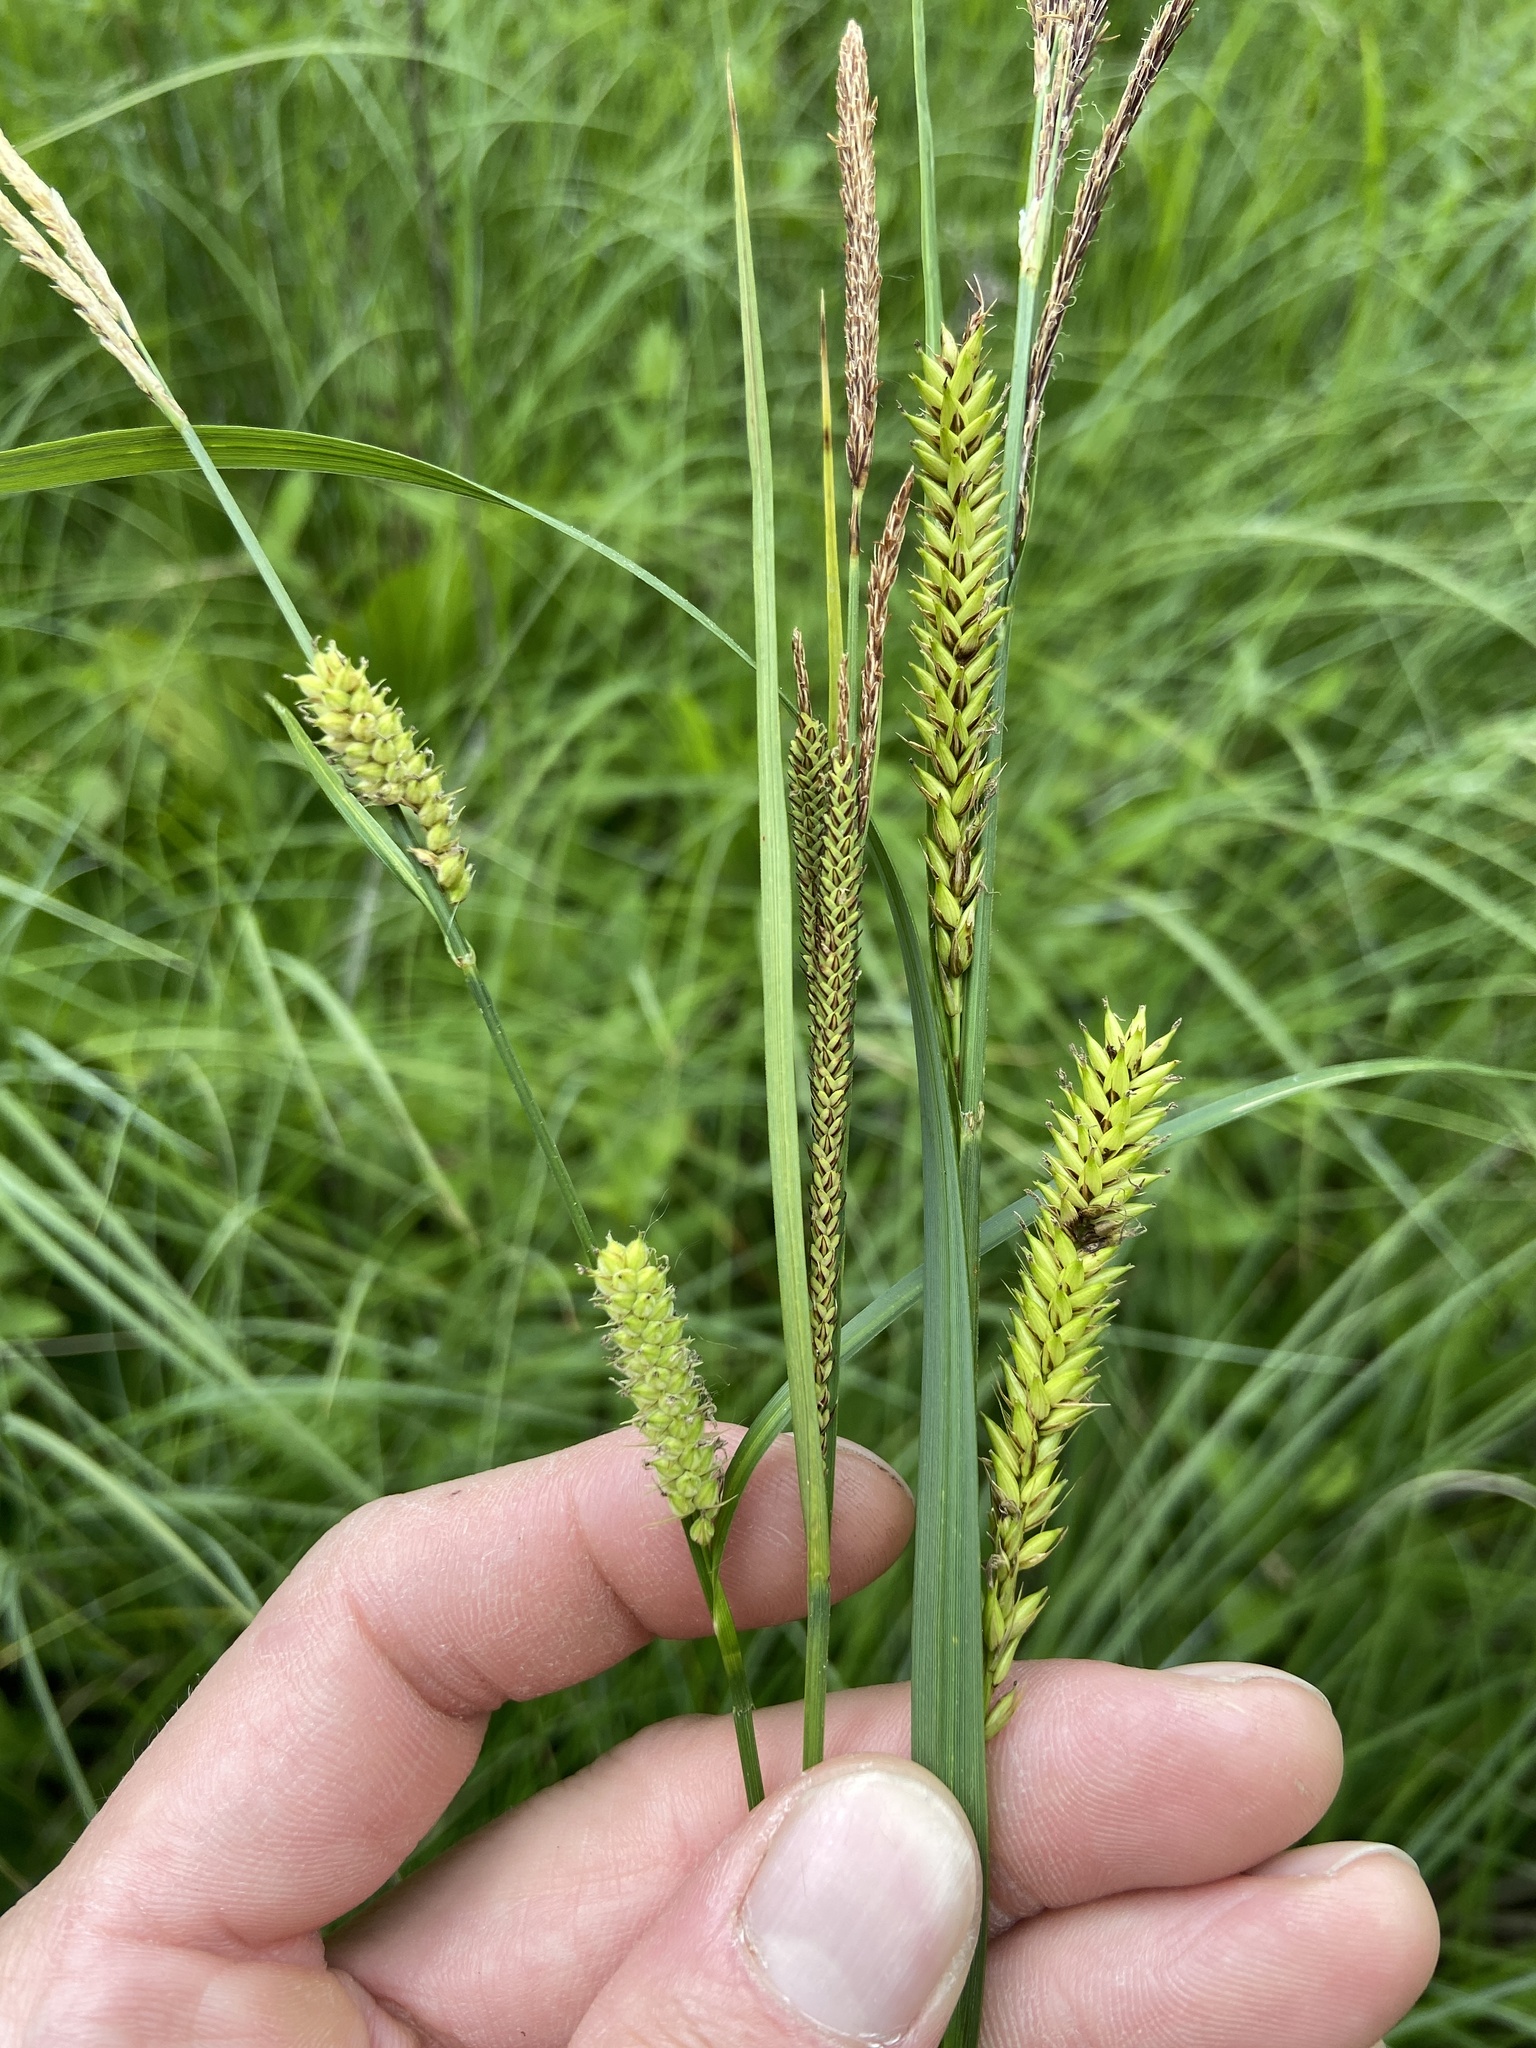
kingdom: Plantae
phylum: Tracheophyta
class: Liliopsida
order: Poales
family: Cyperaceae
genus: Carex
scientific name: Carex lacustris
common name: Common lake sedge
